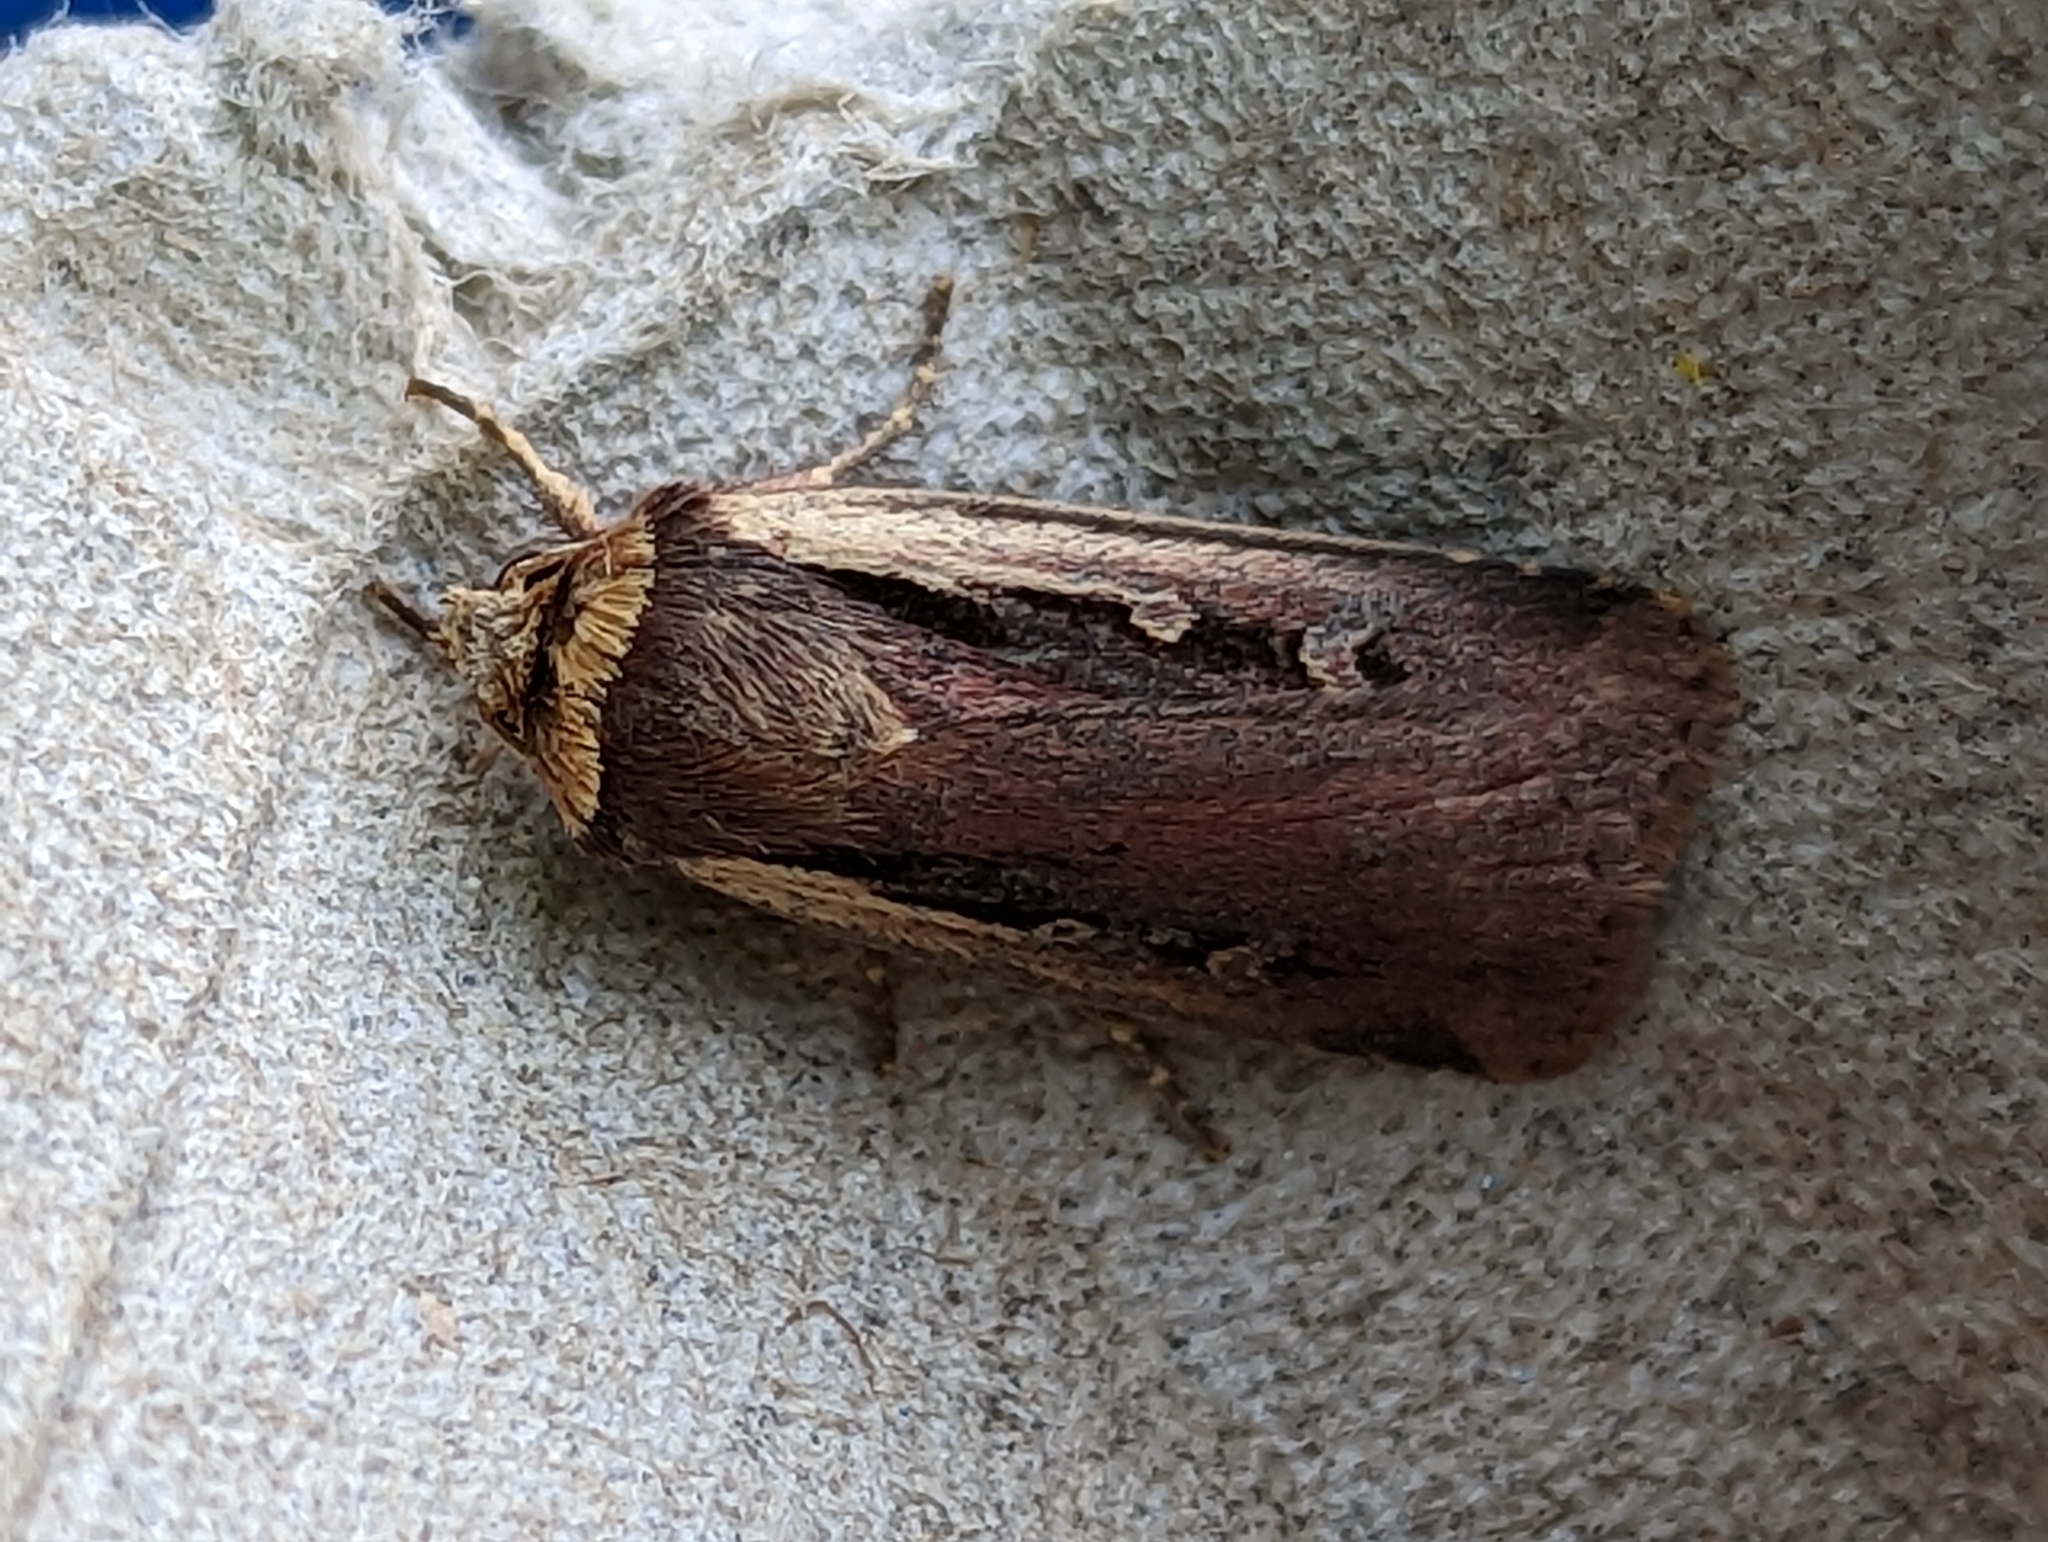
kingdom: Animalia
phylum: Arthropoda
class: Insecta
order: Lepidoptera
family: Noctuidae
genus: Ochropleura
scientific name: Ochropleura plecta
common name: Flame shoulder
